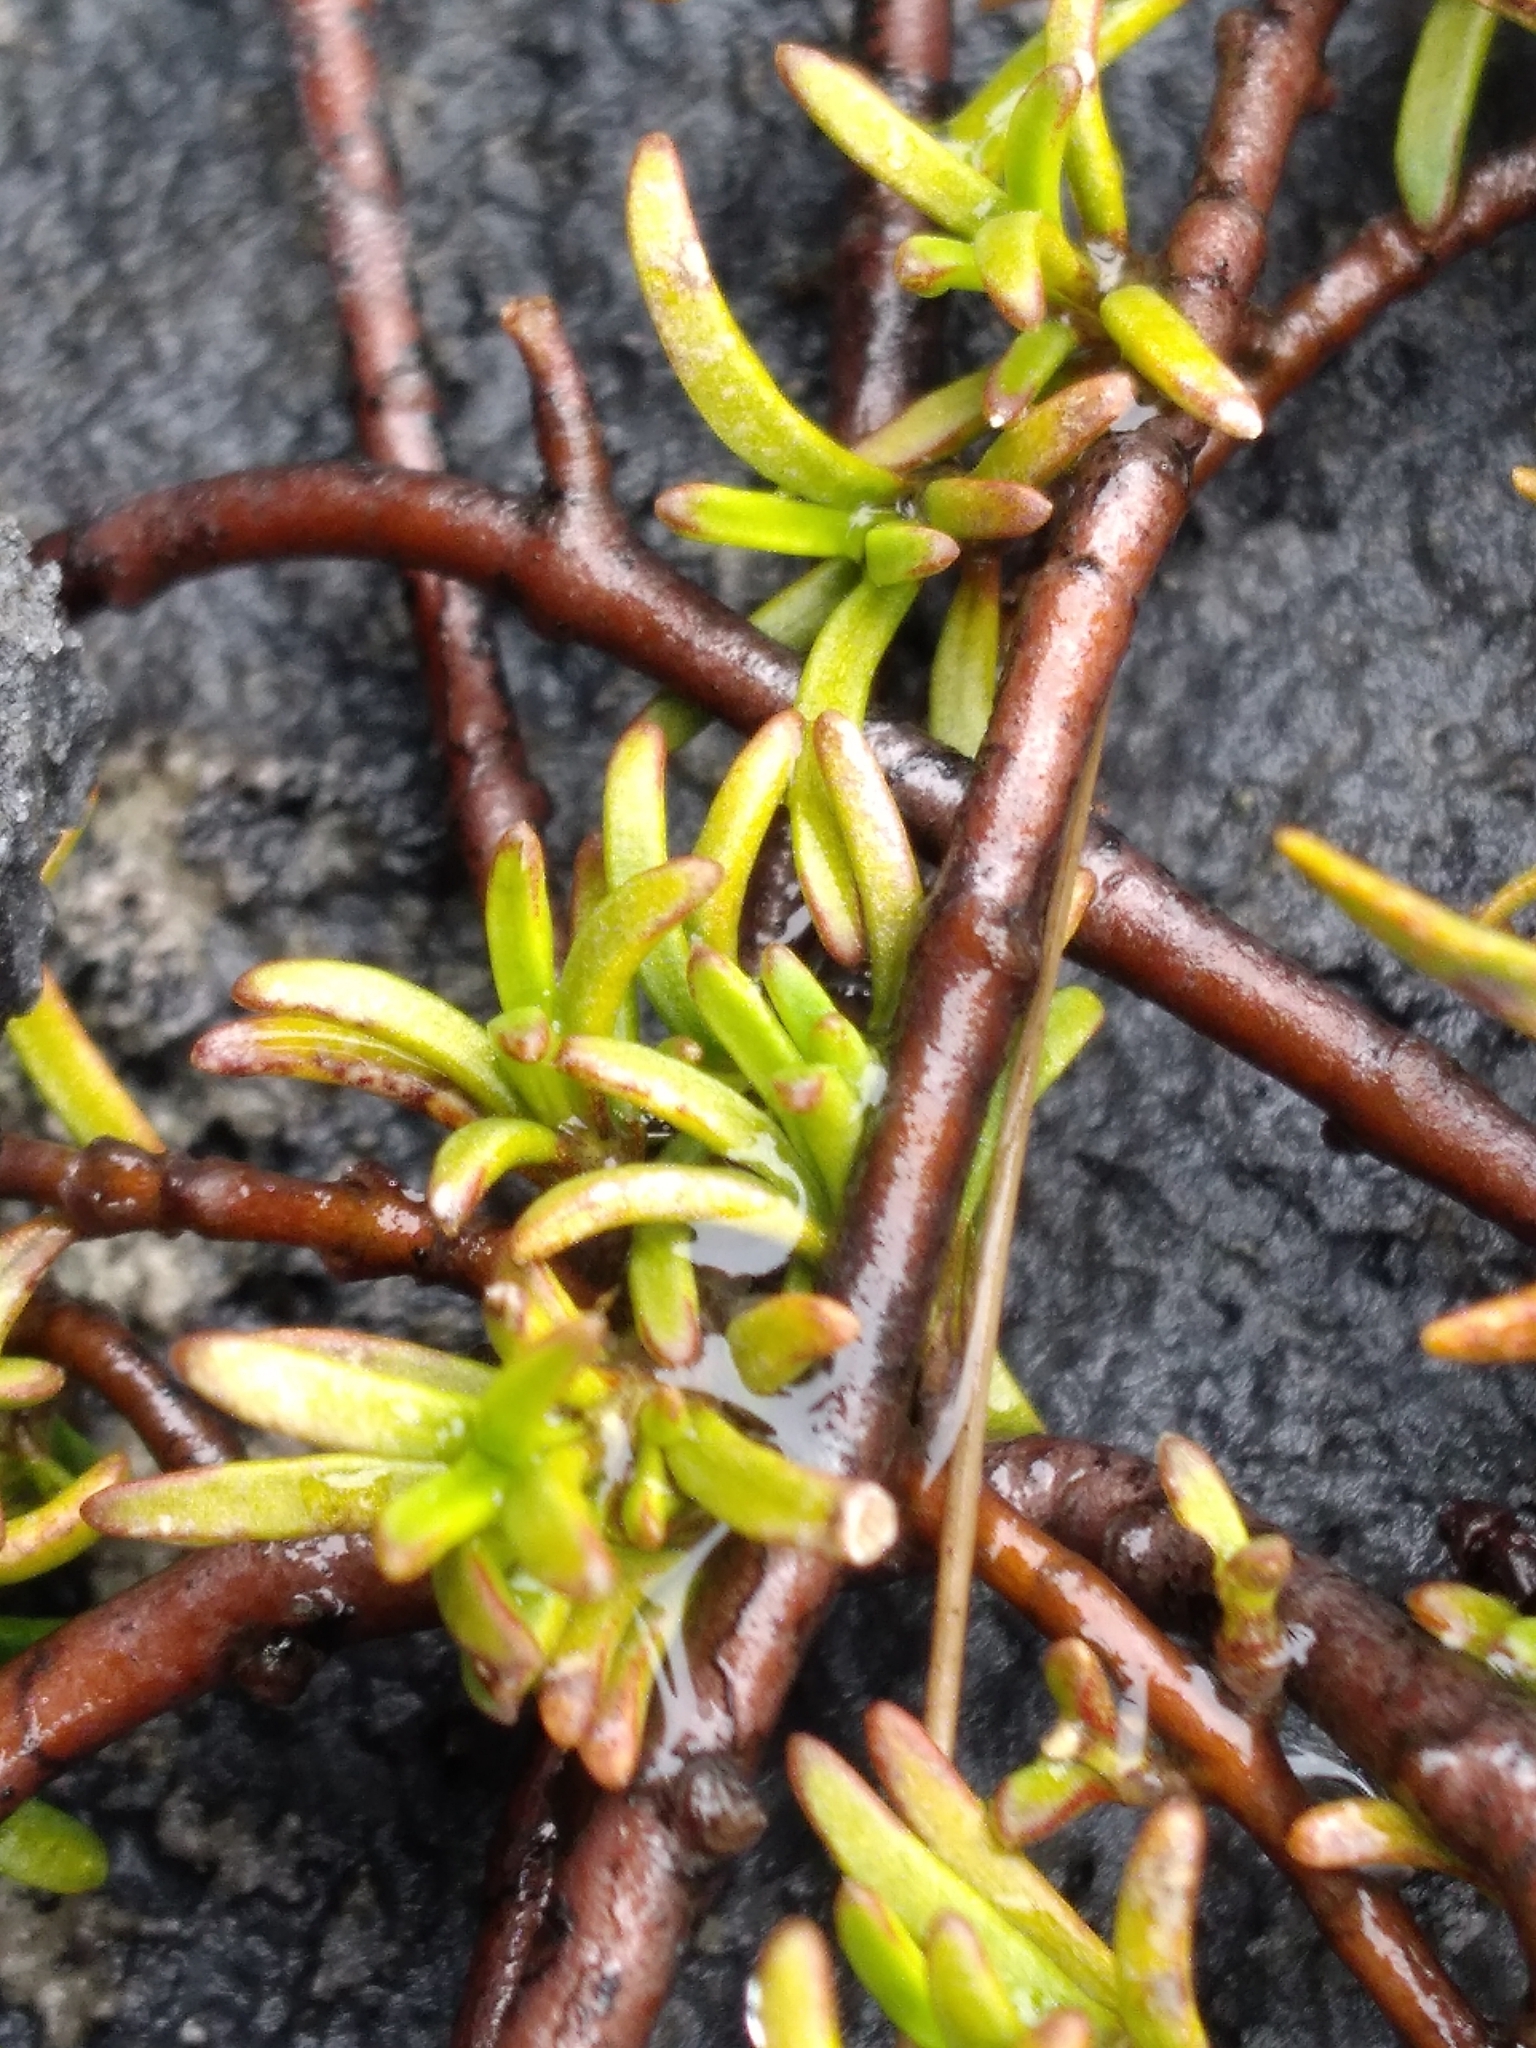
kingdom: Plantae
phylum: Tracheophyta
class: Magnoliopsida
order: Gentianales
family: Rubiaceae
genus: Coprosma
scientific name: Coprosma cheesemanii
